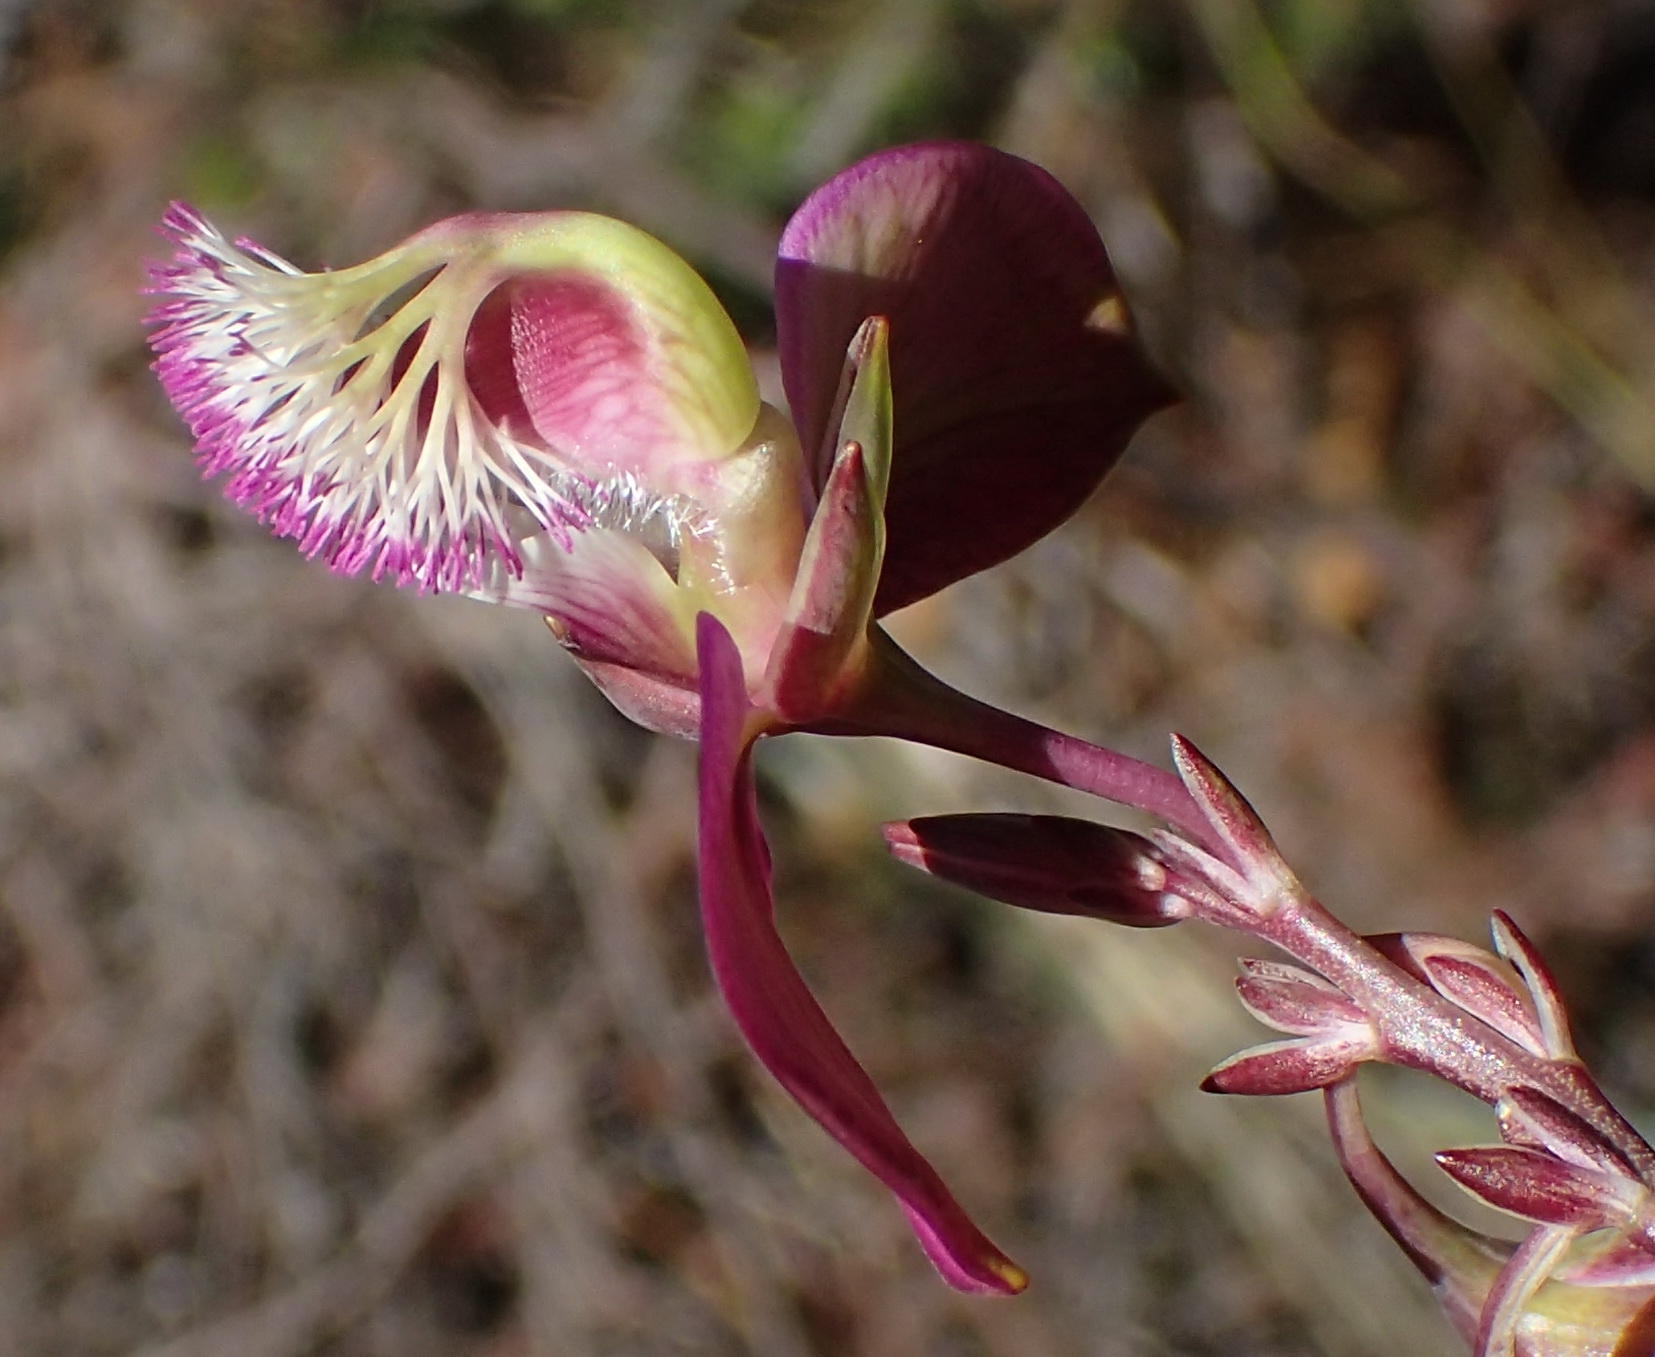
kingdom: Plantae
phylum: Tracheophyta
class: Magnoliopsida
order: Fabales
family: Polygalaceae
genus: Polygala
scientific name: Polygala bracteolata
